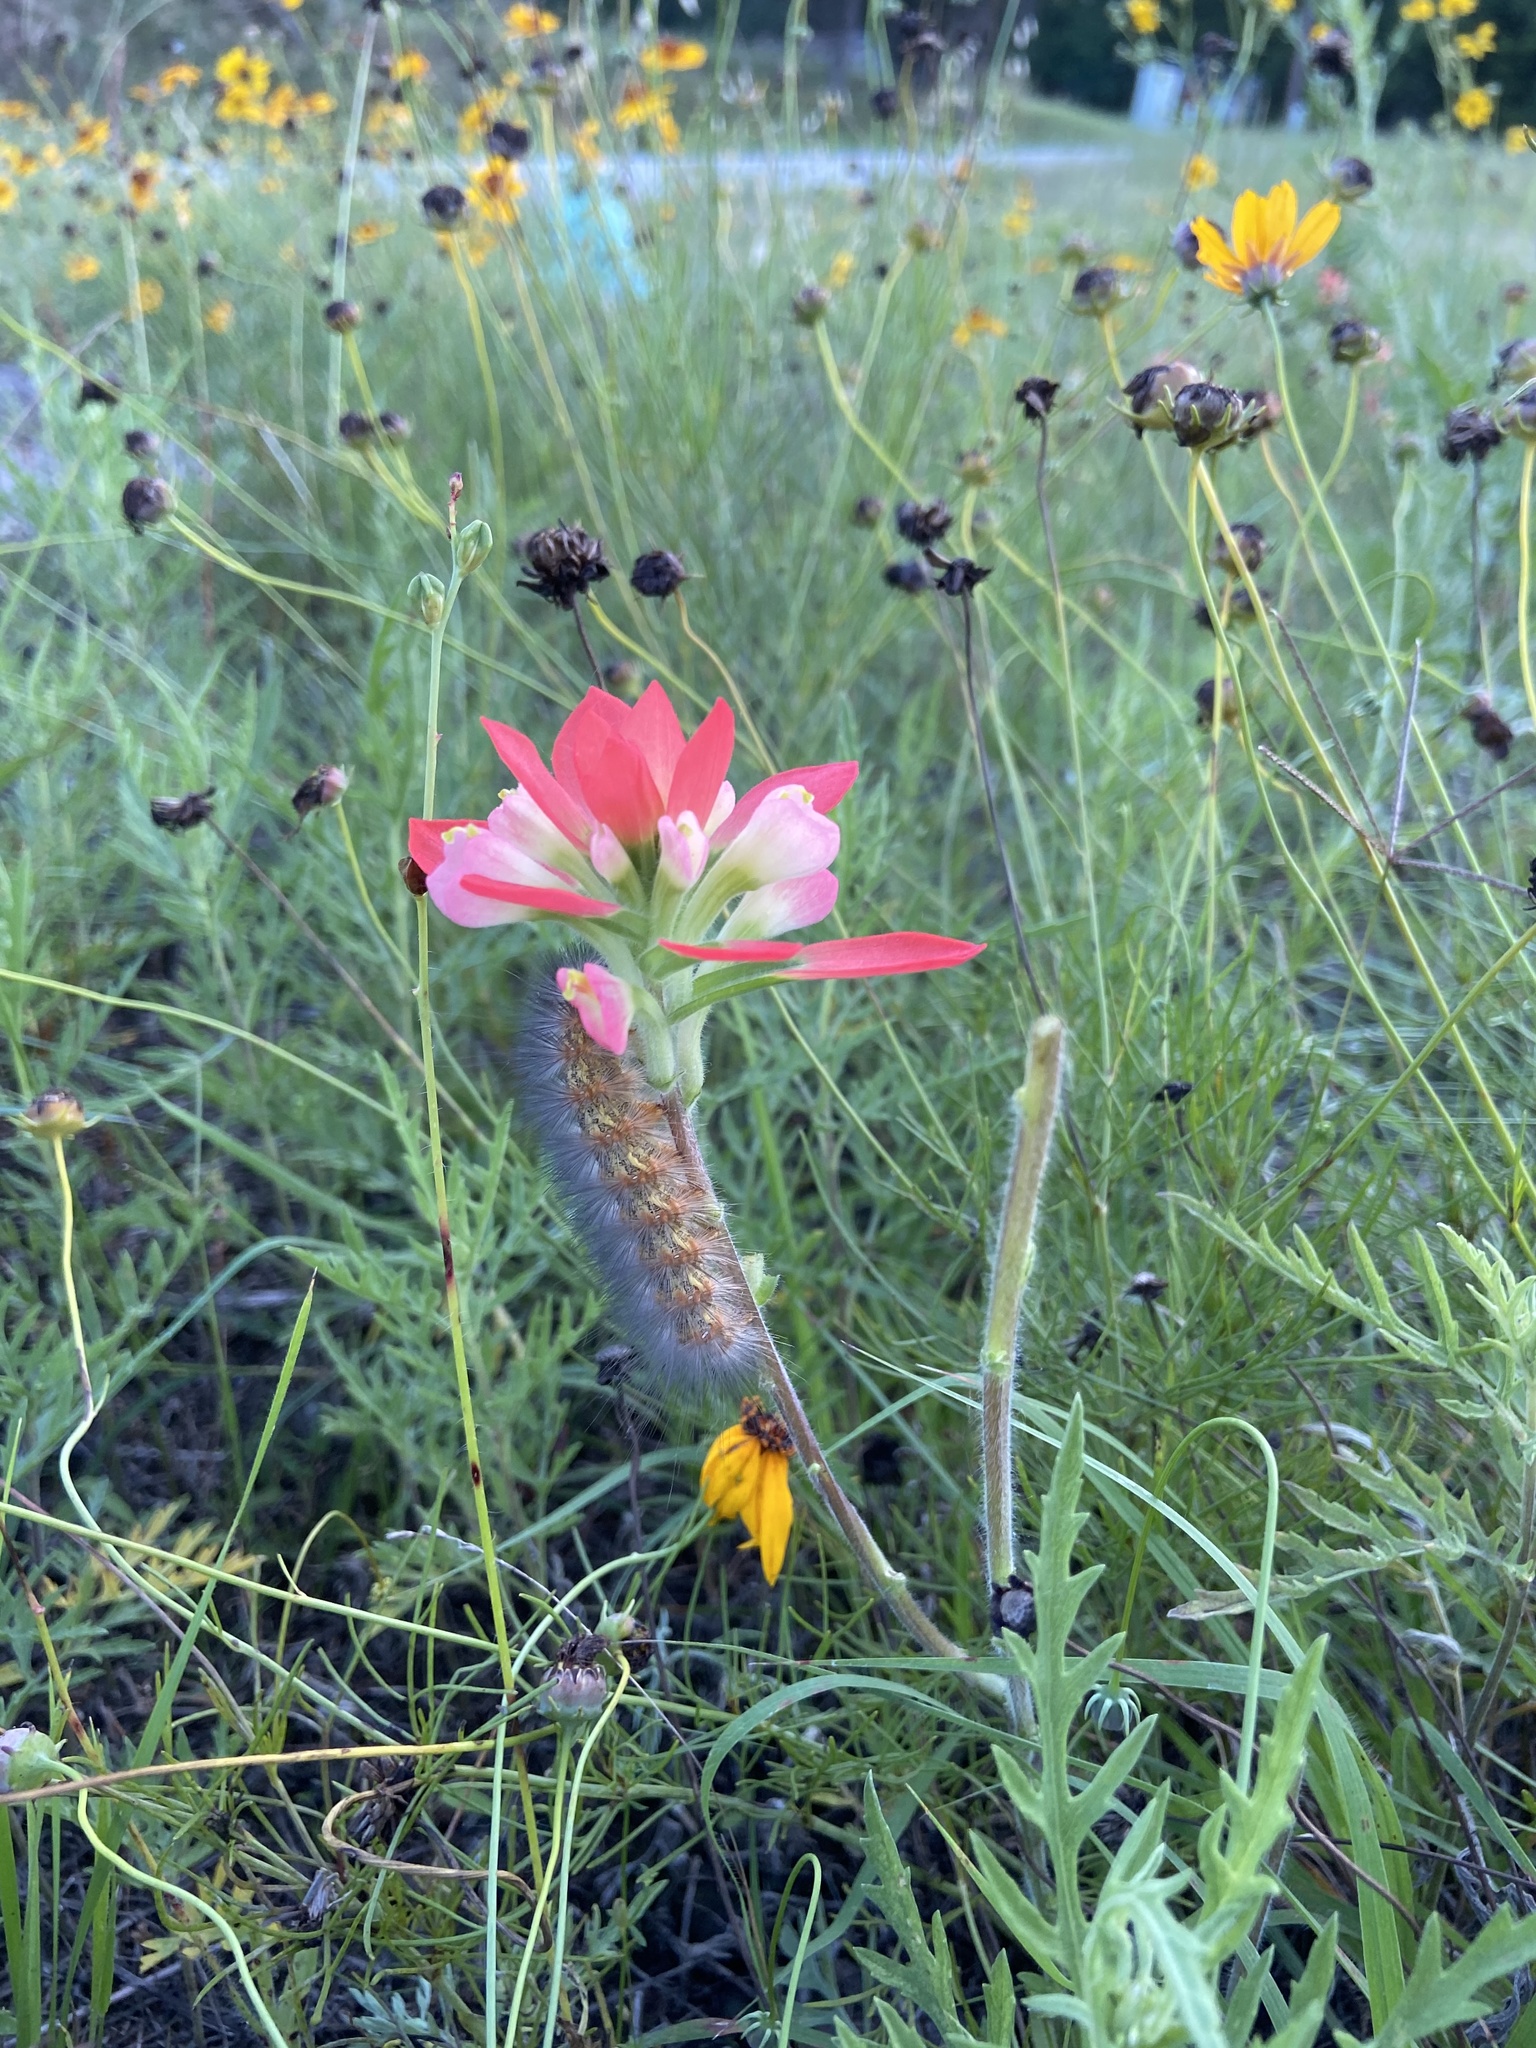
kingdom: Animalia
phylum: Arthropoda
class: Insecta
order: Lepidoptera
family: Erebidae
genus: Estigmene
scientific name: Estigmene acrea
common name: Salt marsh moth
